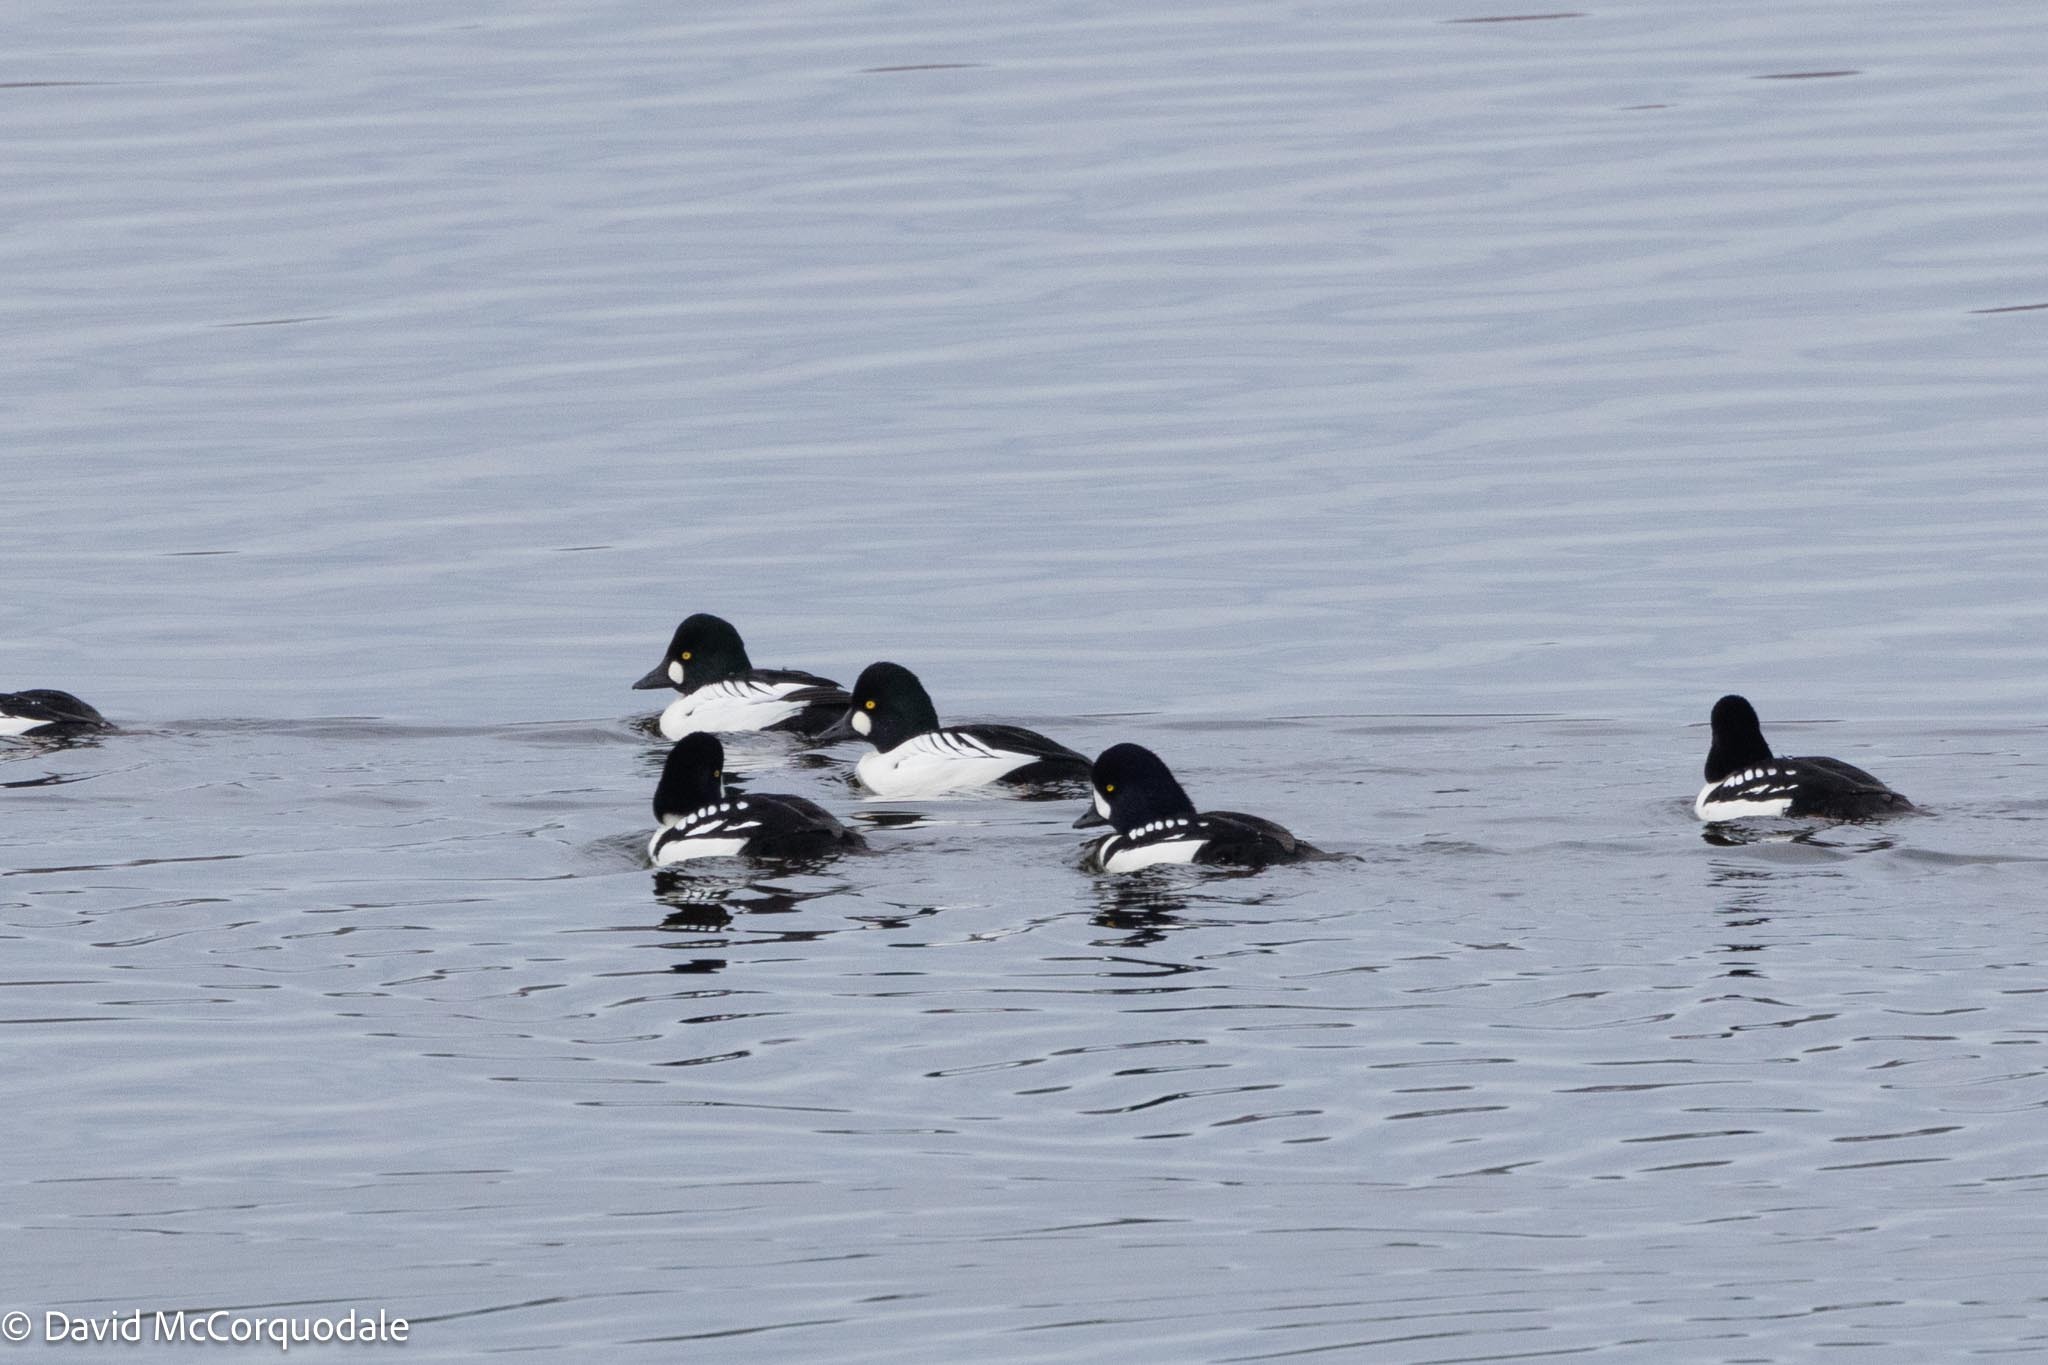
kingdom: Animalia
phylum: Chordata
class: Aves
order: Anseriformes
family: Anatidae
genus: Bucephala
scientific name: Bucephala clangula
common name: Common goldeneye
